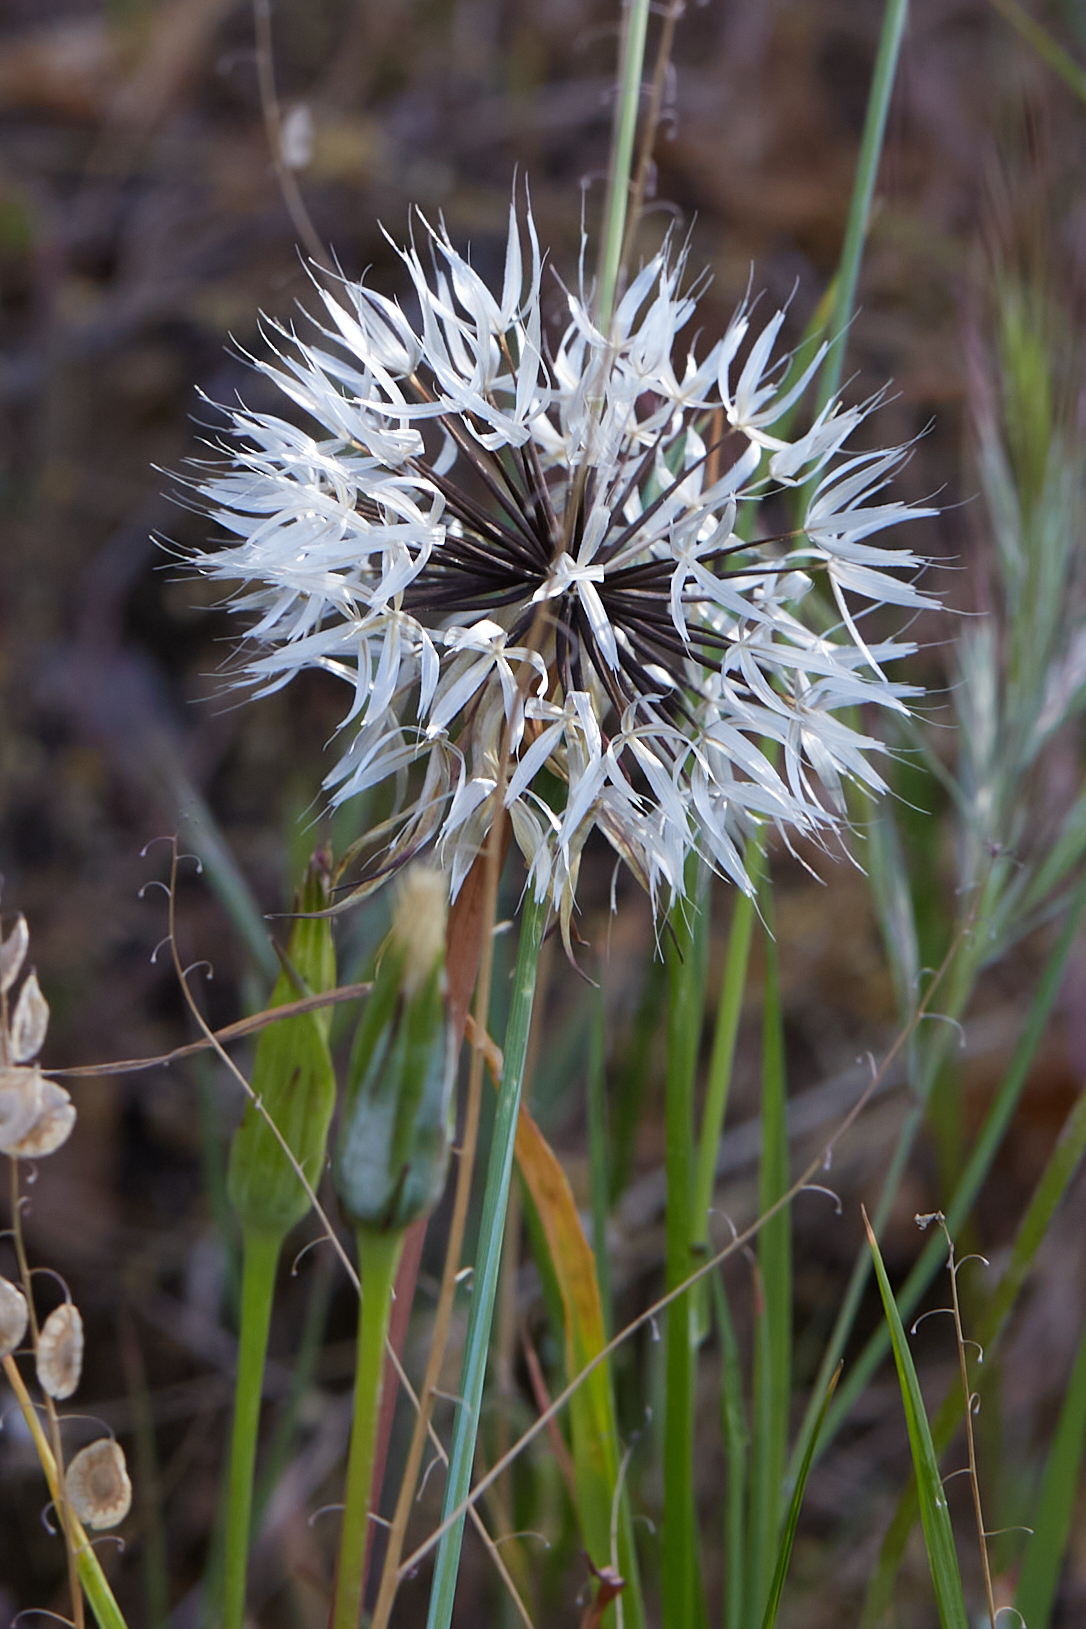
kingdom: Plantae
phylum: Tracheophyta
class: Magnoliopsida
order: Asterales
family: Asteraceae
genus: Microseris
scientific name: Microseris lindleyi
